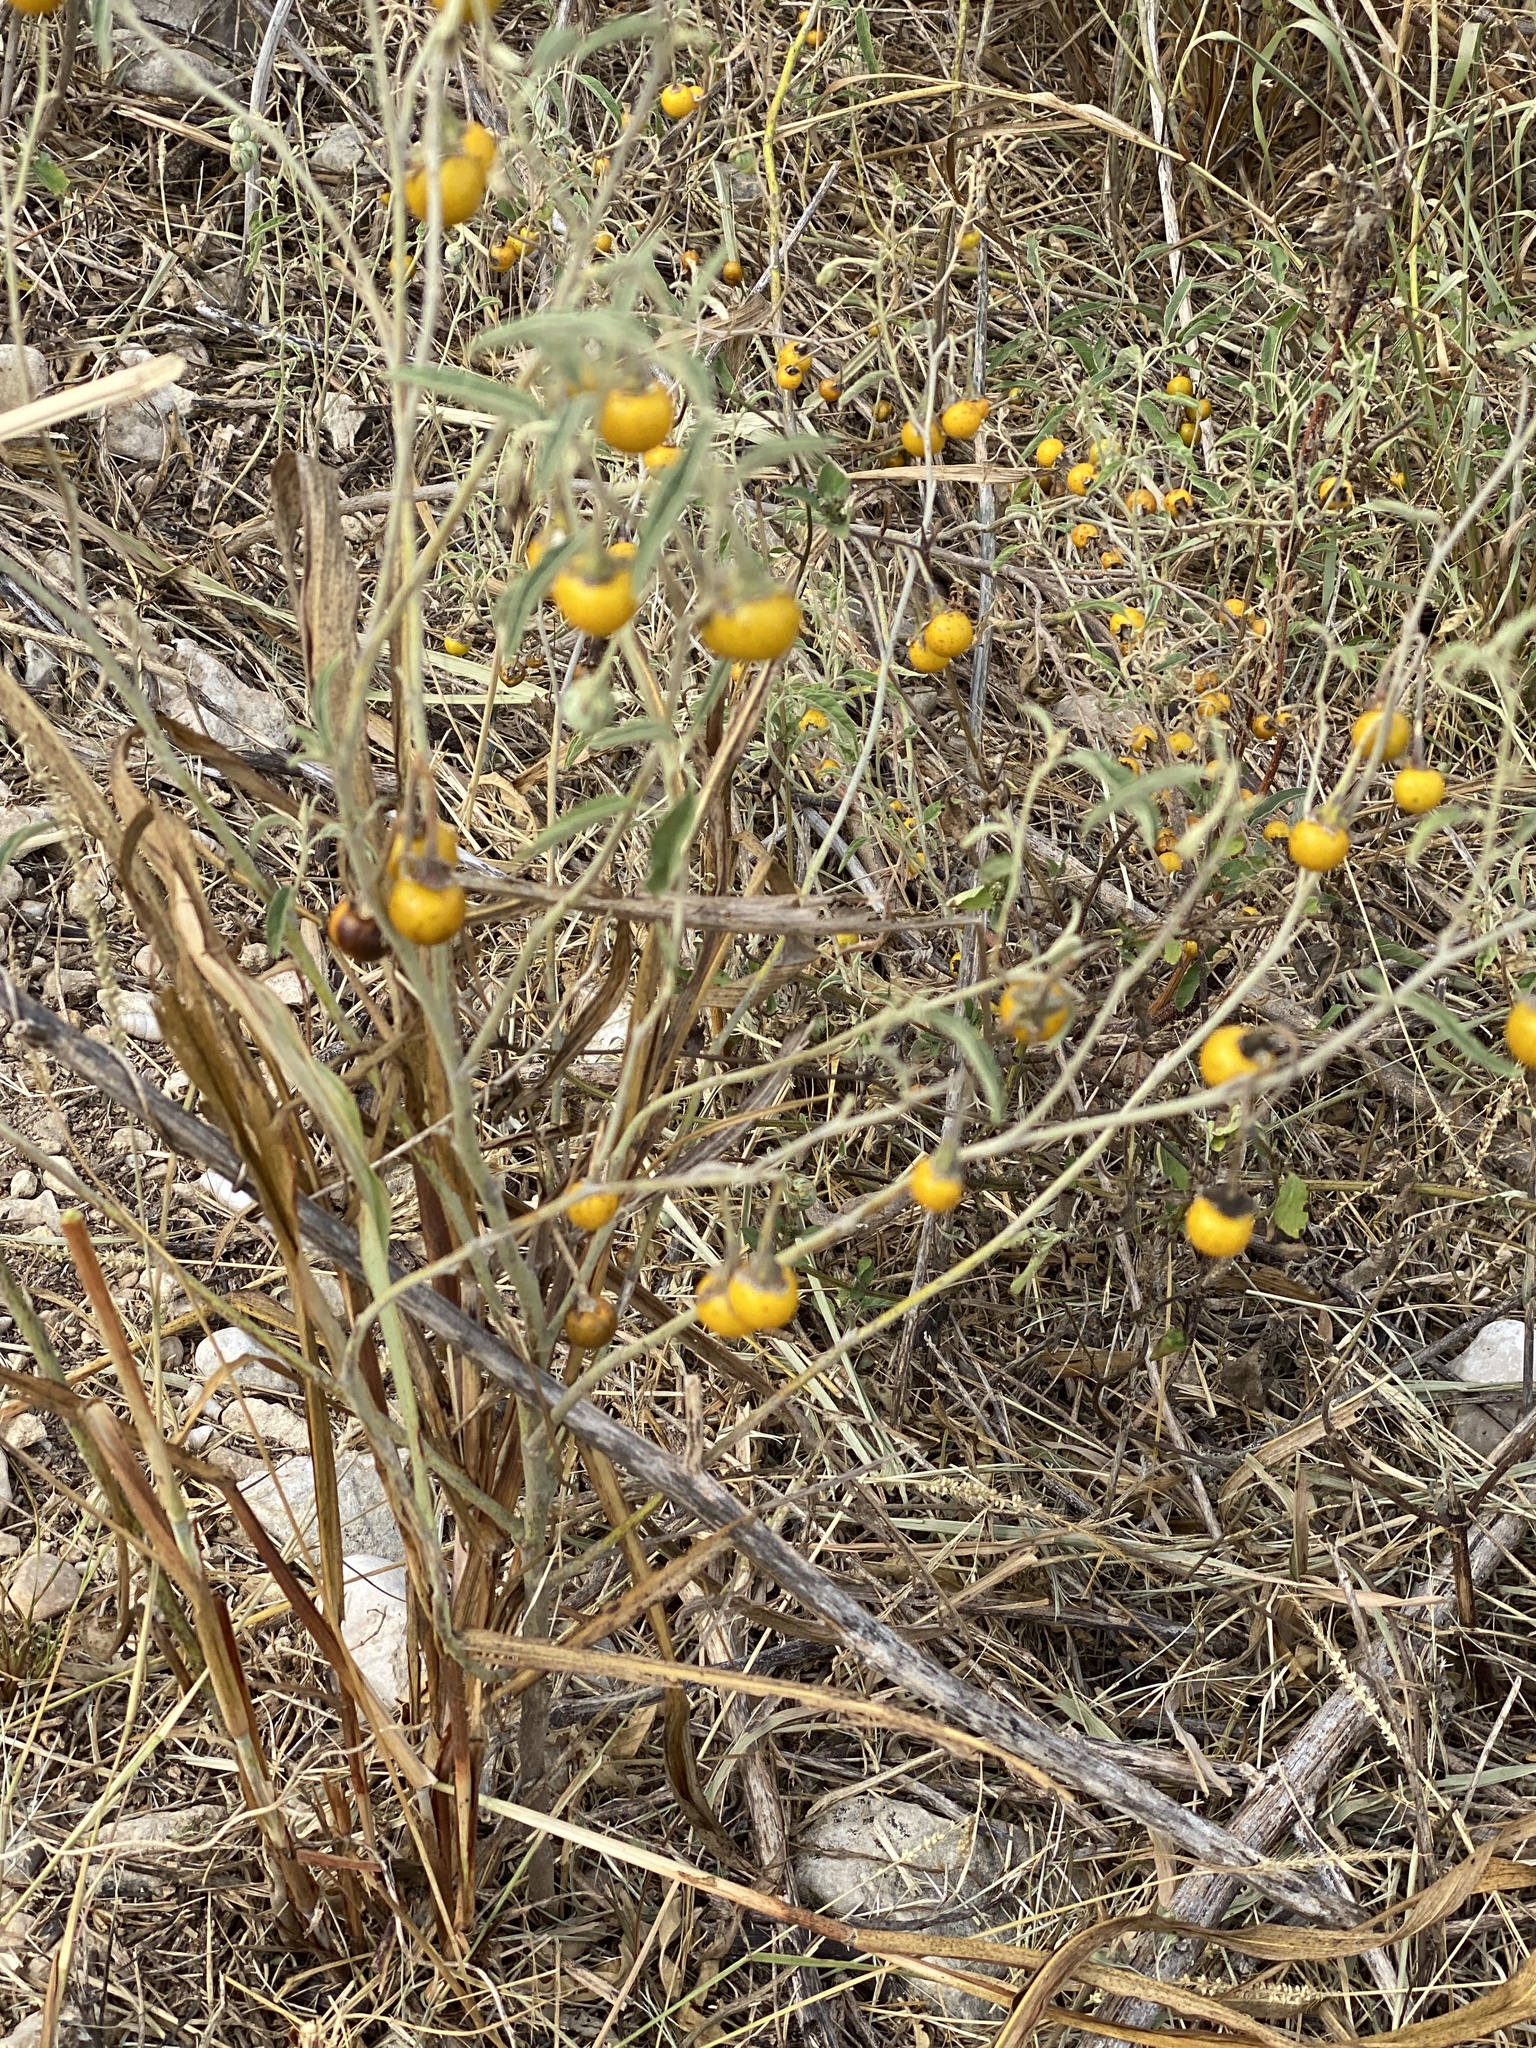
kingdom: Plantae
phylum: Tracheophyta
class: Magnoliopsida
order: Solanales
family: Solanaceae
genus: Solanum
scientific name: Solanum elaeagnifolium
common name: Silverleaf nightshade
